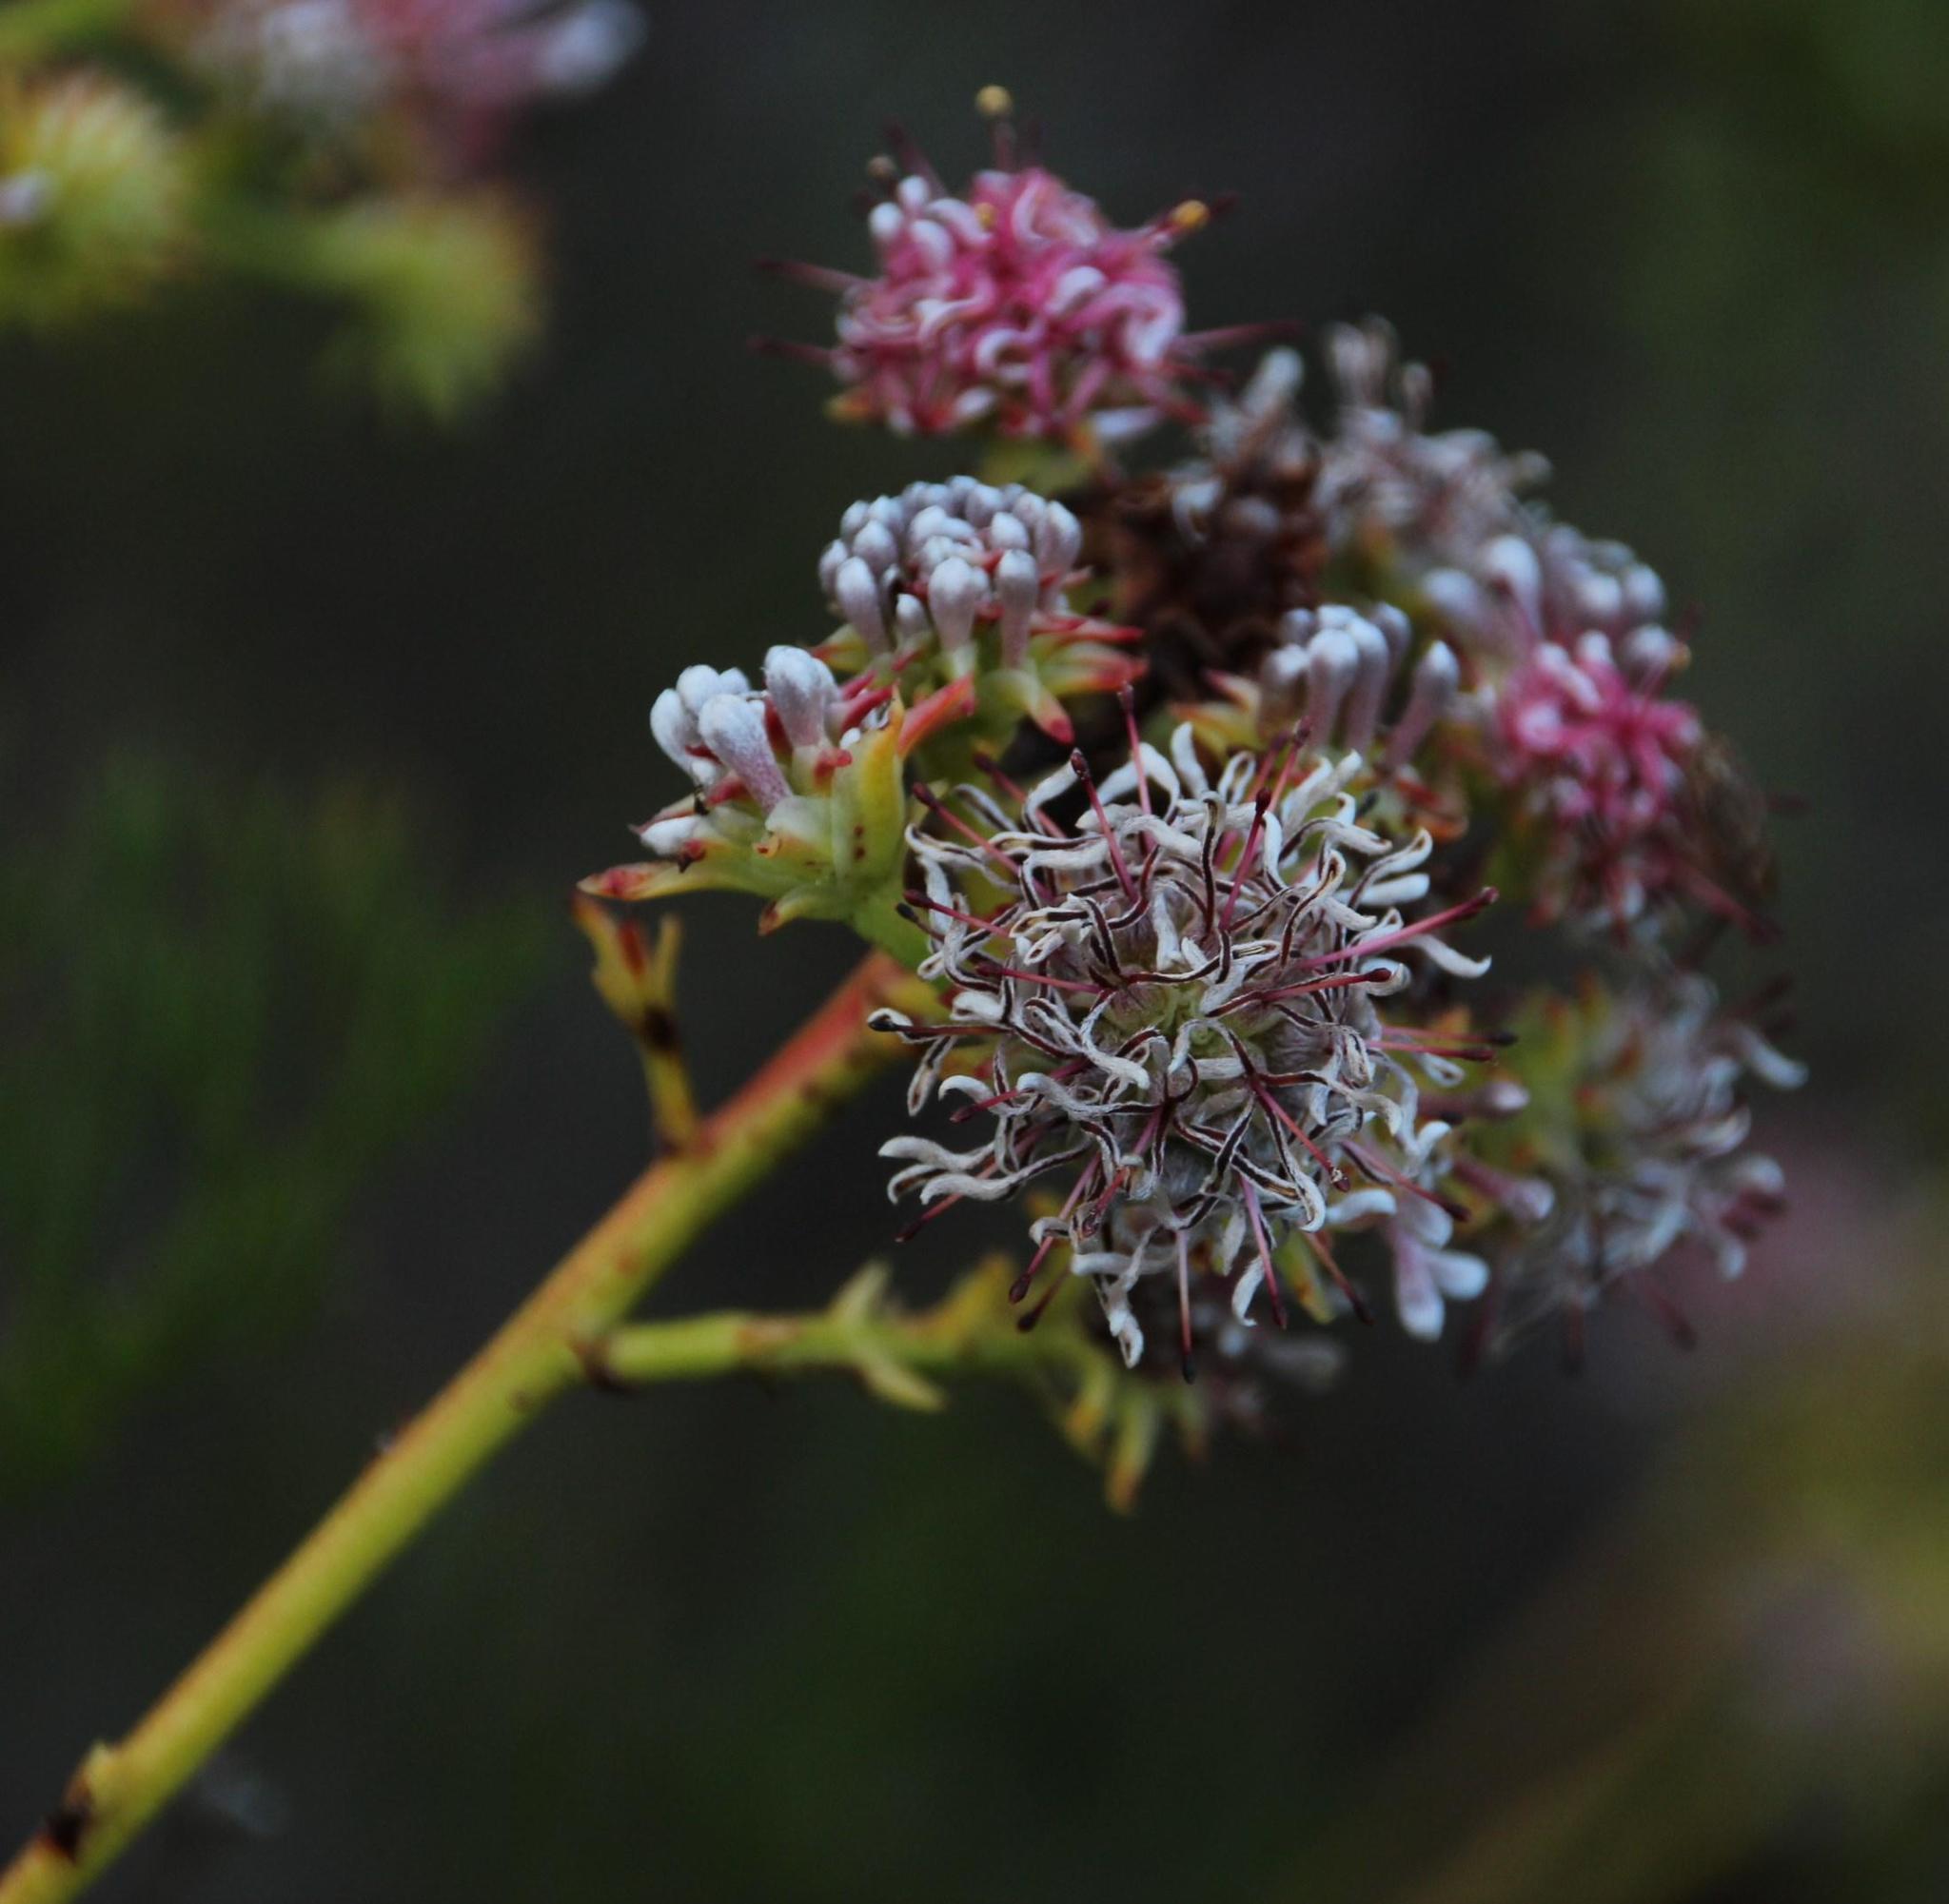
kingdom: Plantae
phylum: Tracheophyta
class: Magnoliopsida
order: Proteales
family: Proteaceae
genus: Serruria
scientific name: Serruria elongata
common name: Long-stalk spiderhead
